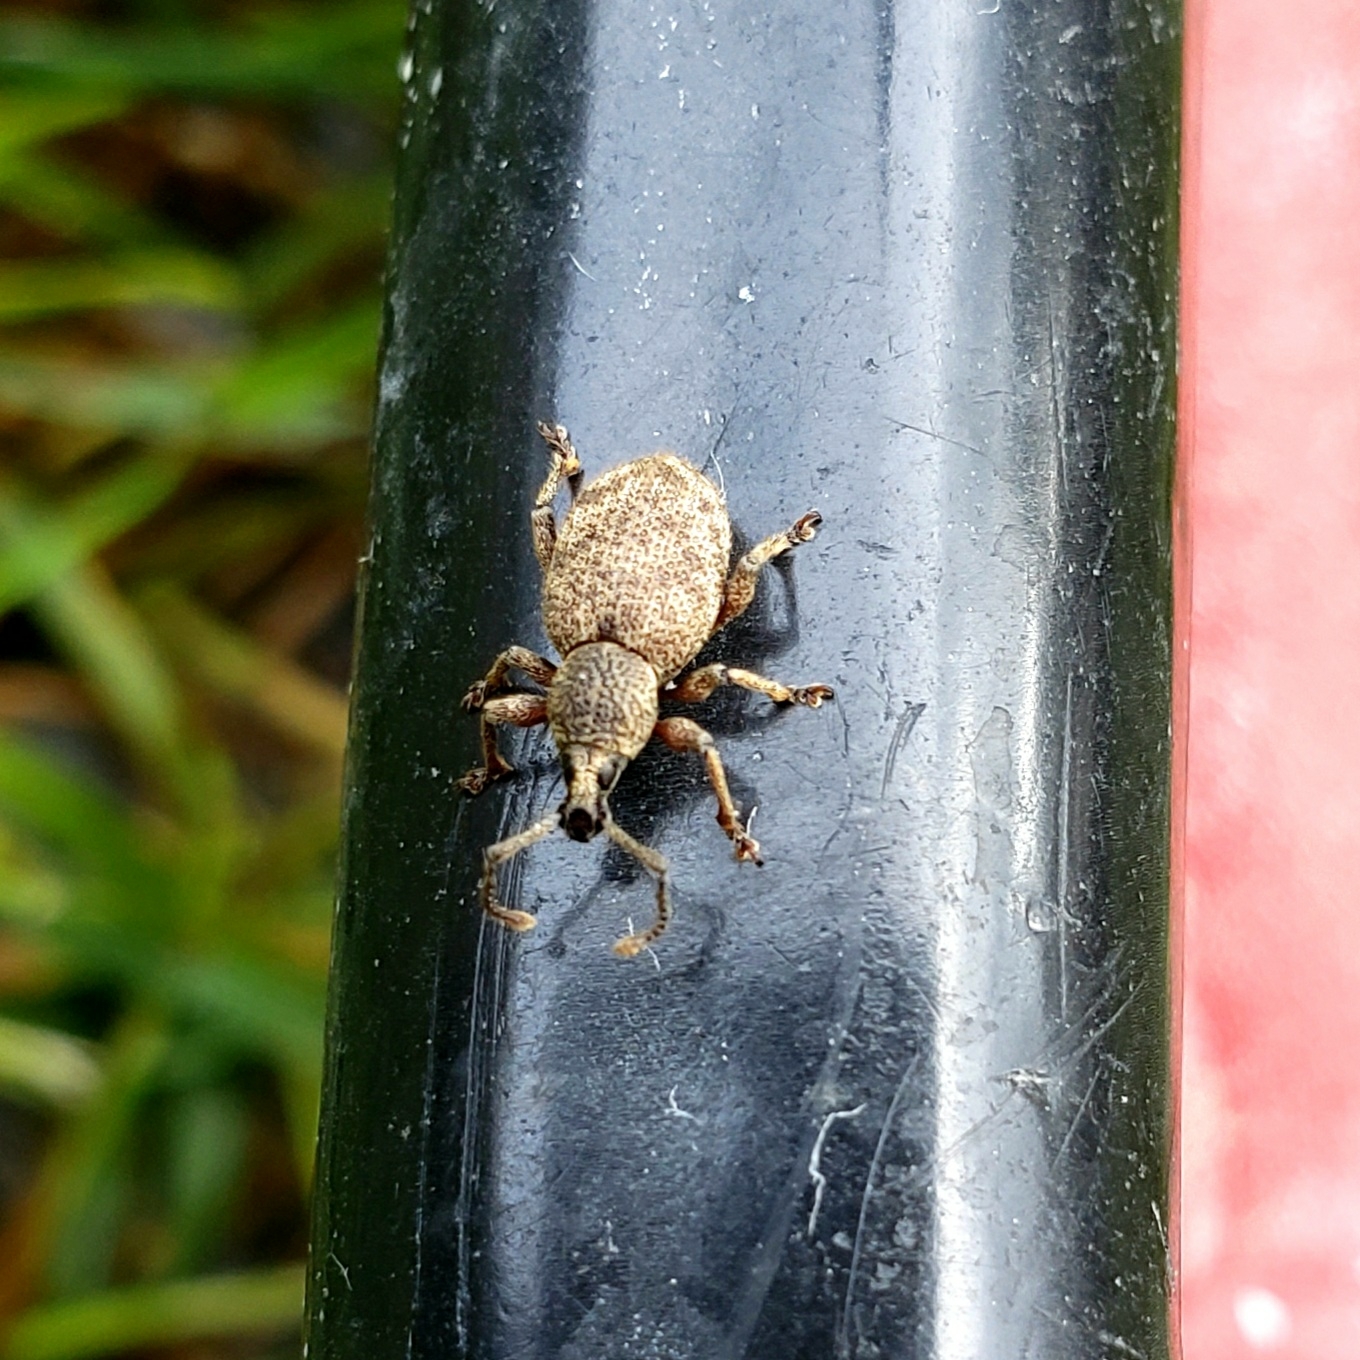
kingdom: Animalia
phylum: Arthropoda
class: Insecta
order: Coleoptera
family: Curculionidae
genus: Otiorhynchus
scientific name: Otiorhynchus singularis
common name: Clay-coloured weevil
